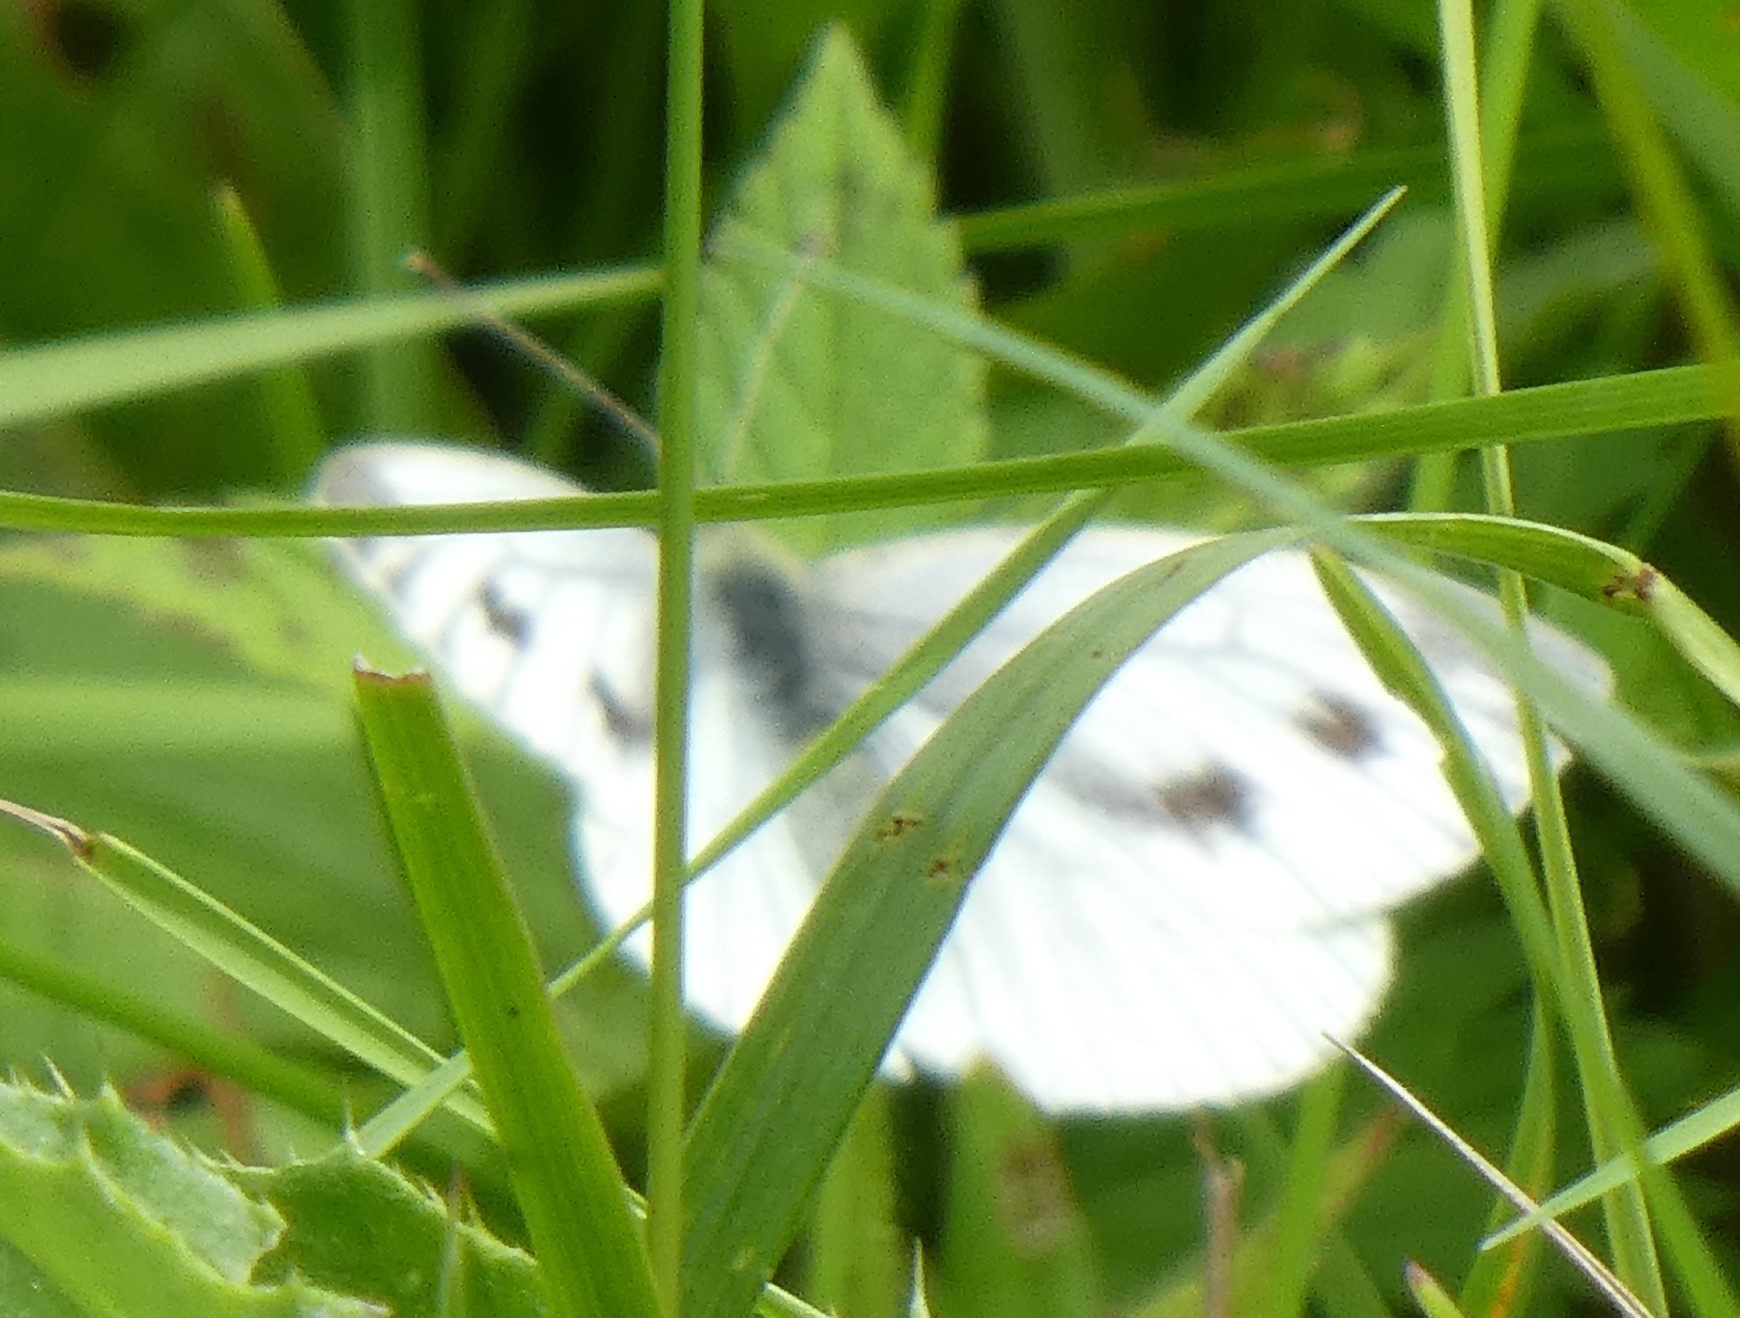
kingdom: Animalia
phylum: Arthropoda
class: Insecta
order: Lepidoptera
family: Pieridae
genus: Pieris
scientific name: Pieris napi
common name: Green-veined white
